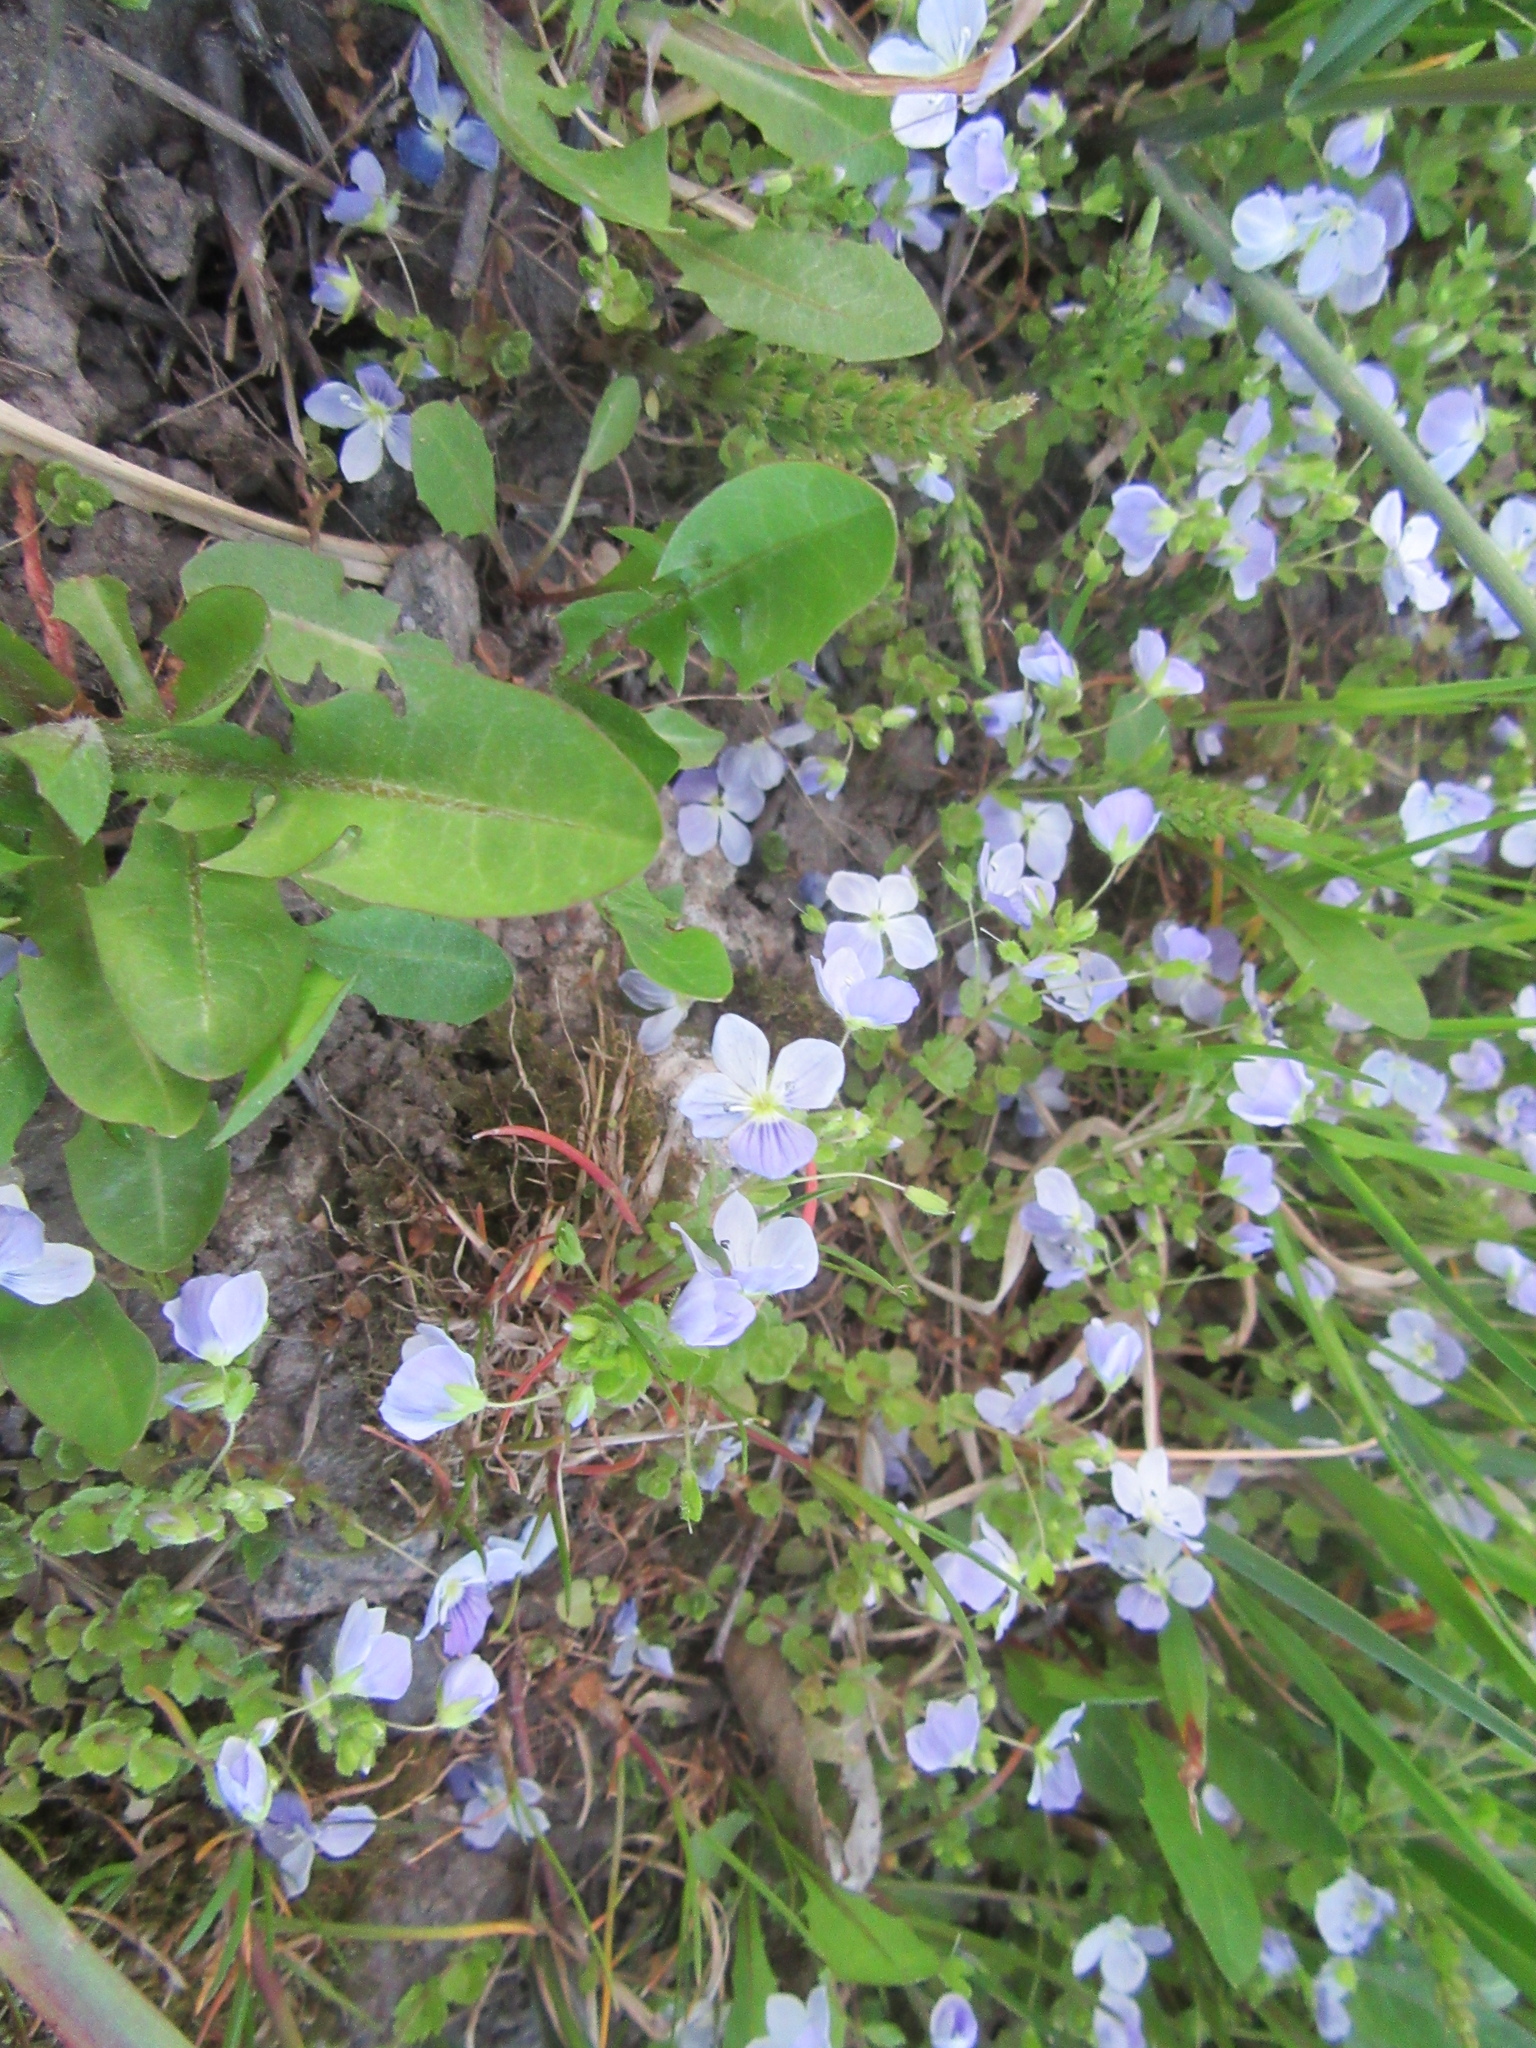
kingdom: Plantae
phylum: Tracheophyta
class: Magnoliopsida
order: Lamiales
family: Plantaginaceae
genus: Veronica
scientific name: Veronica filiformis
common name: Slender speedwell
